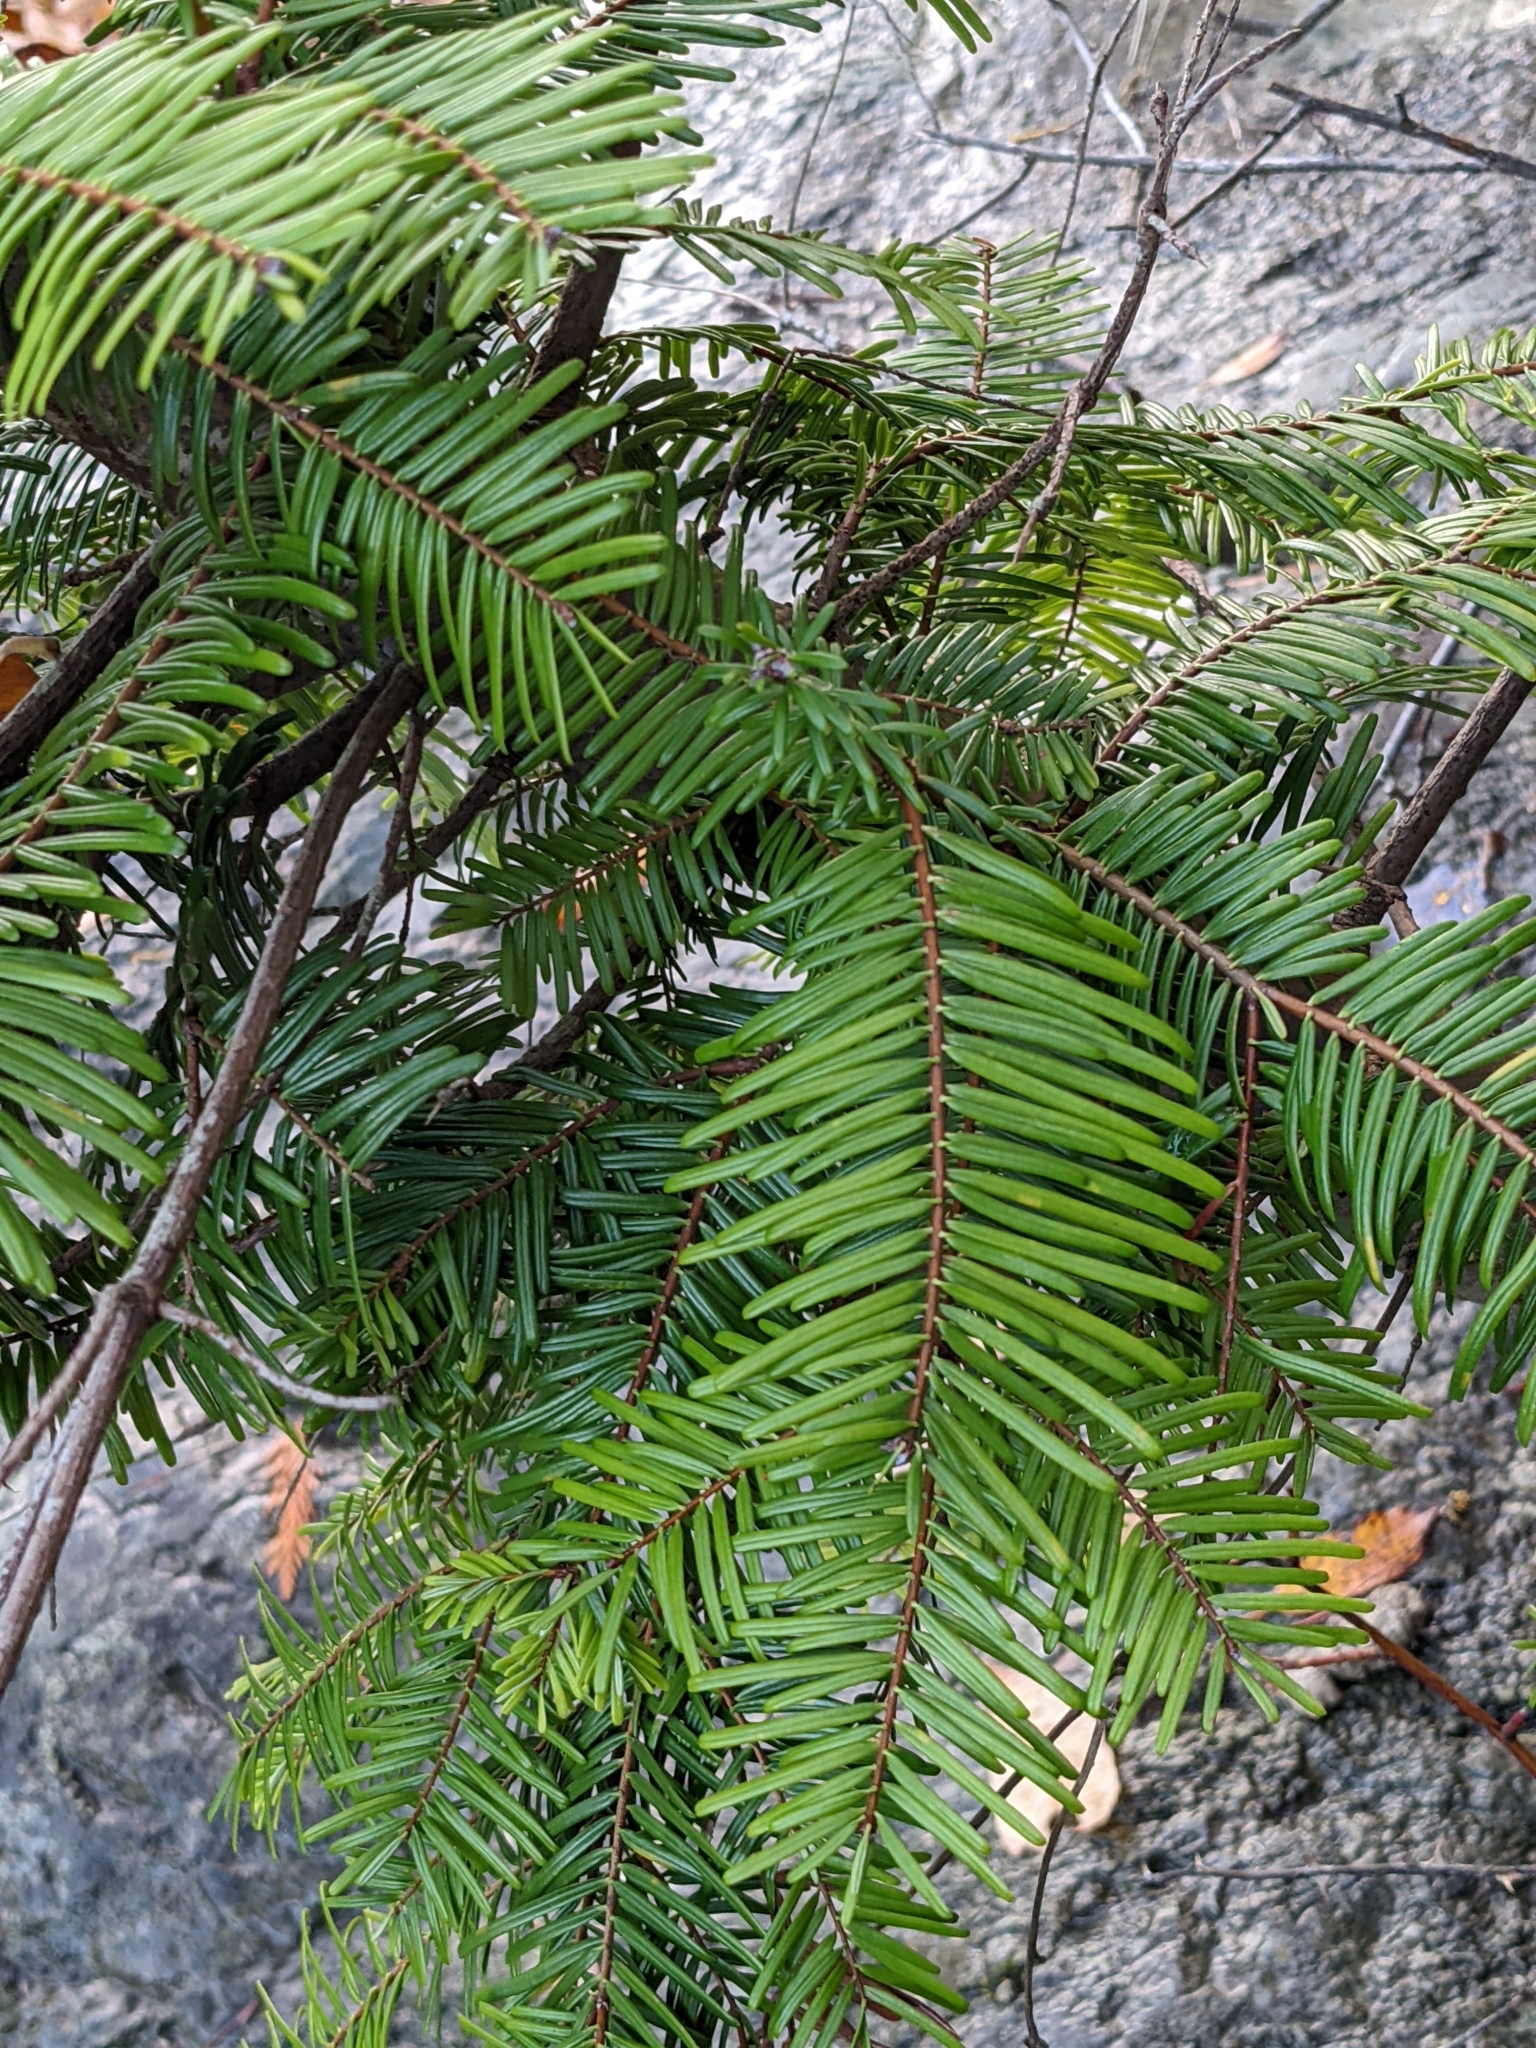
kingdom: Plantae
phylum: Tracheophyta
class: Pinopsida
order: Pinales
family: Pinaceae
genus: Abies
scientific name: Abies grandis
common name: Giant fir
